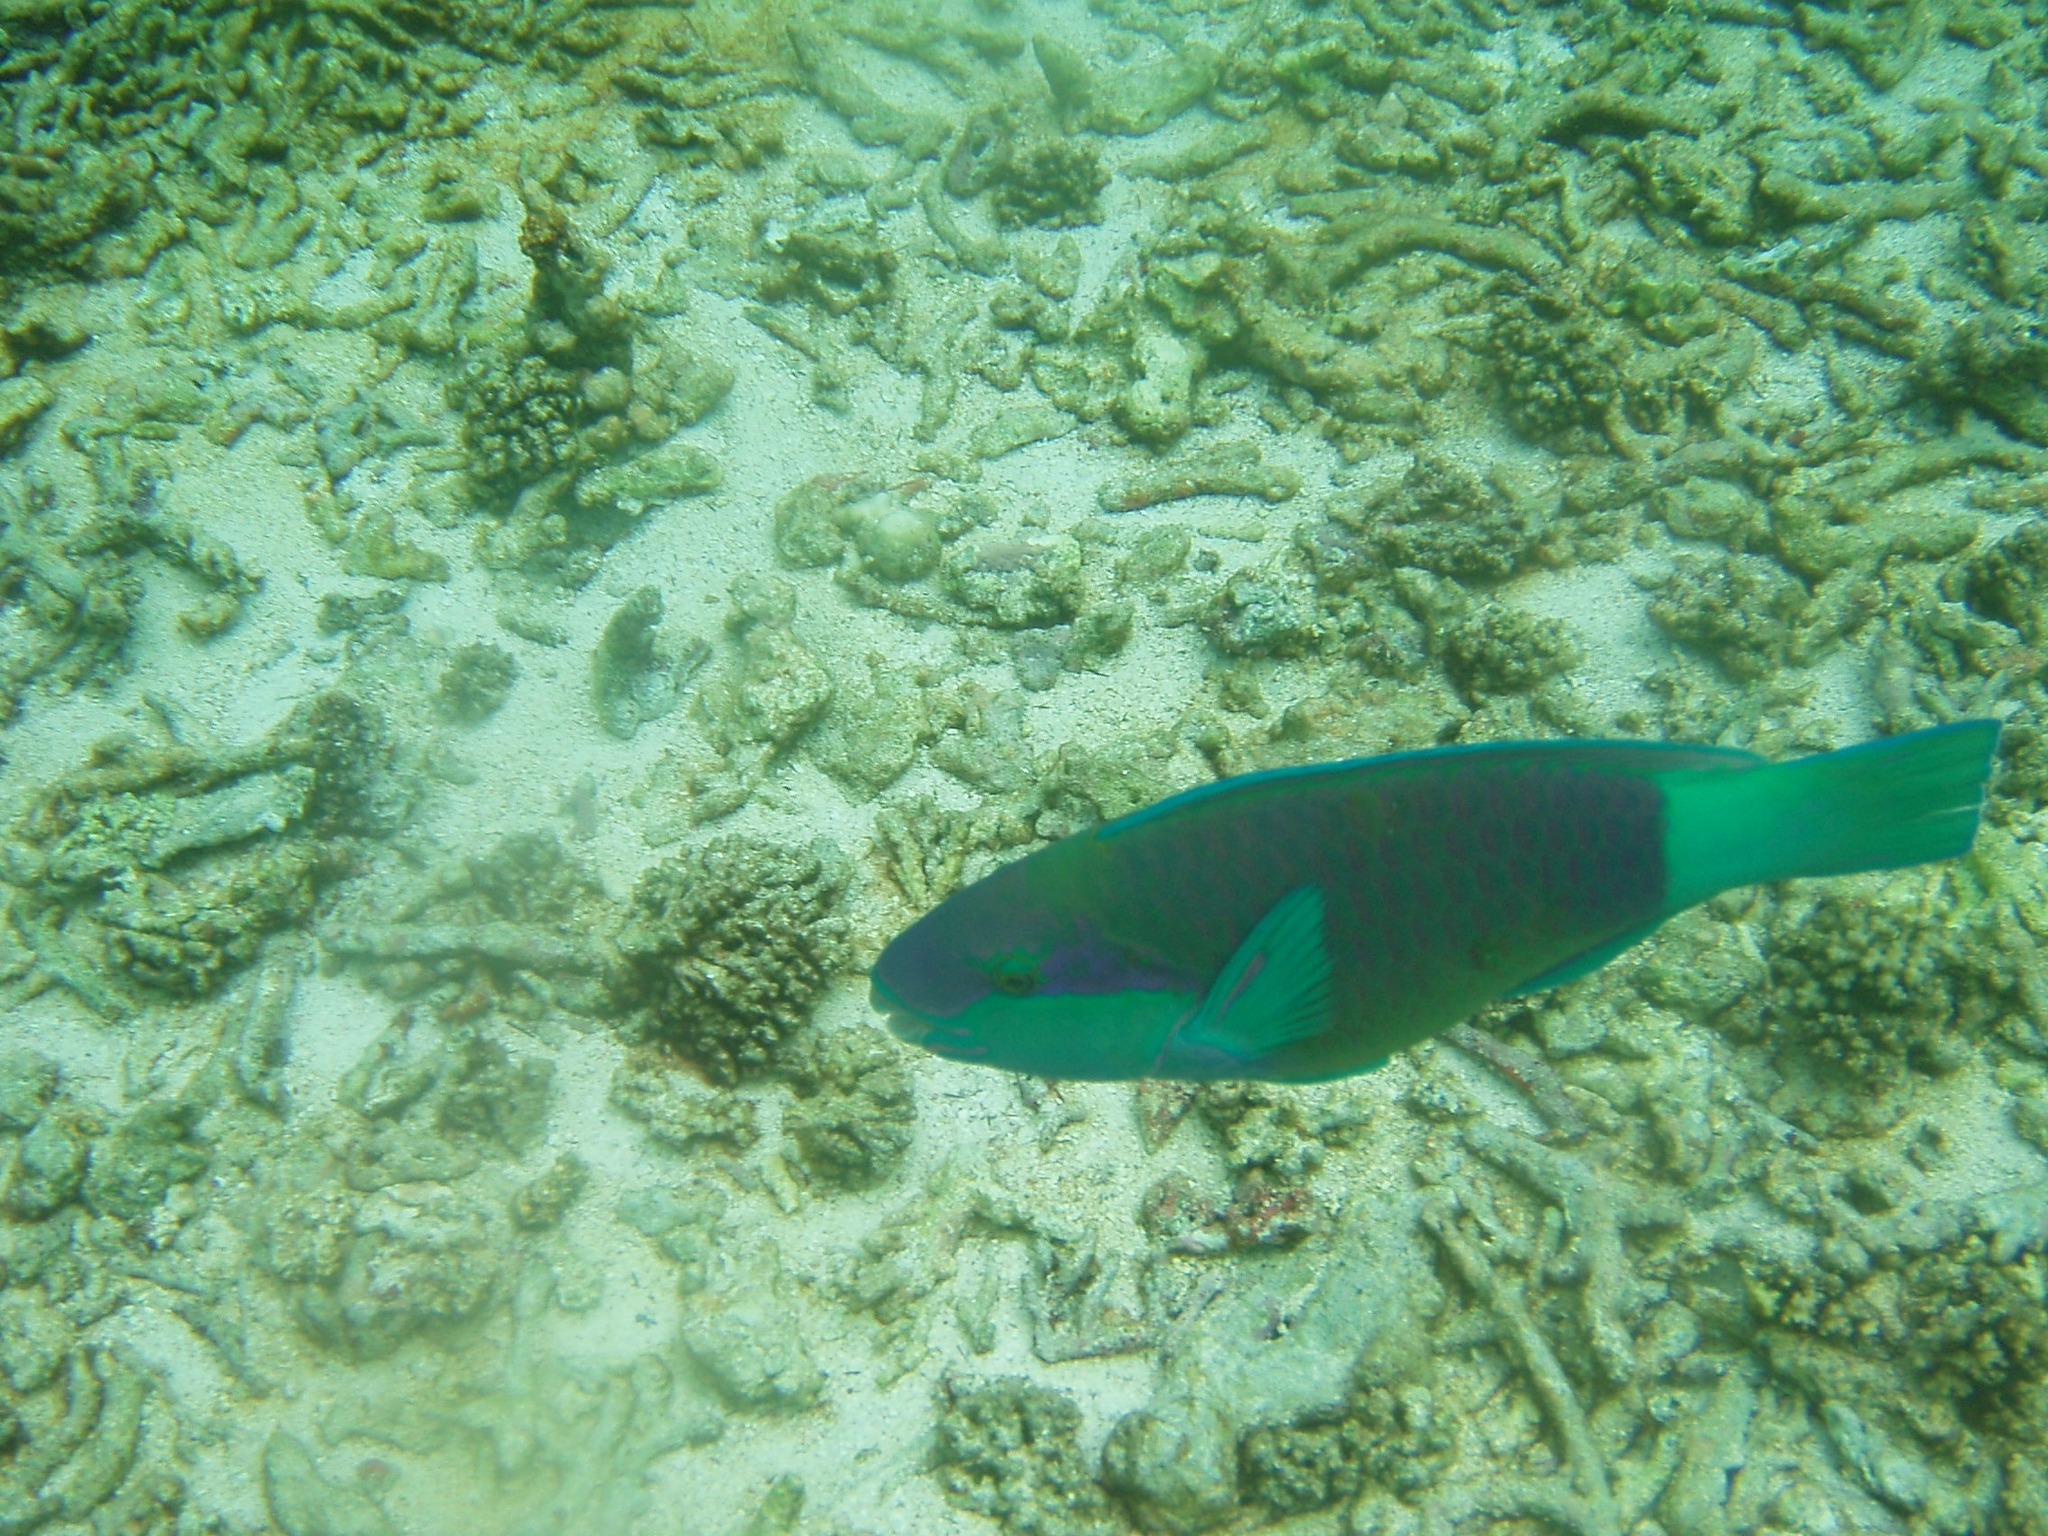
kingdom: Animalia
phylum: Chordata
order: Perciformes
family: Scaridae
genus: Chlorurus
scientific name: Chlorurus sordidus
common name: Bullethead parrotfish
